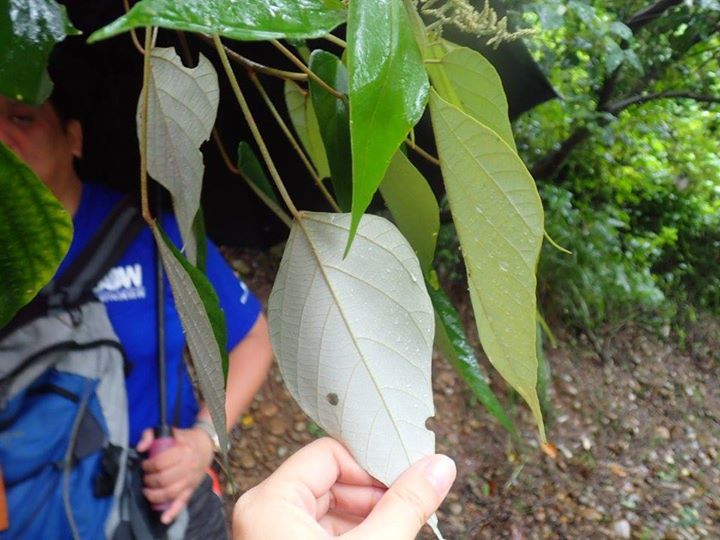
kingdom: Plantae
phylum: Tracheophyta
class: Magnoliopsida
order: Malpighiales
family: Euphorbiaceae
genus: Mallotus
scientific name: Mallotus paniculatus
